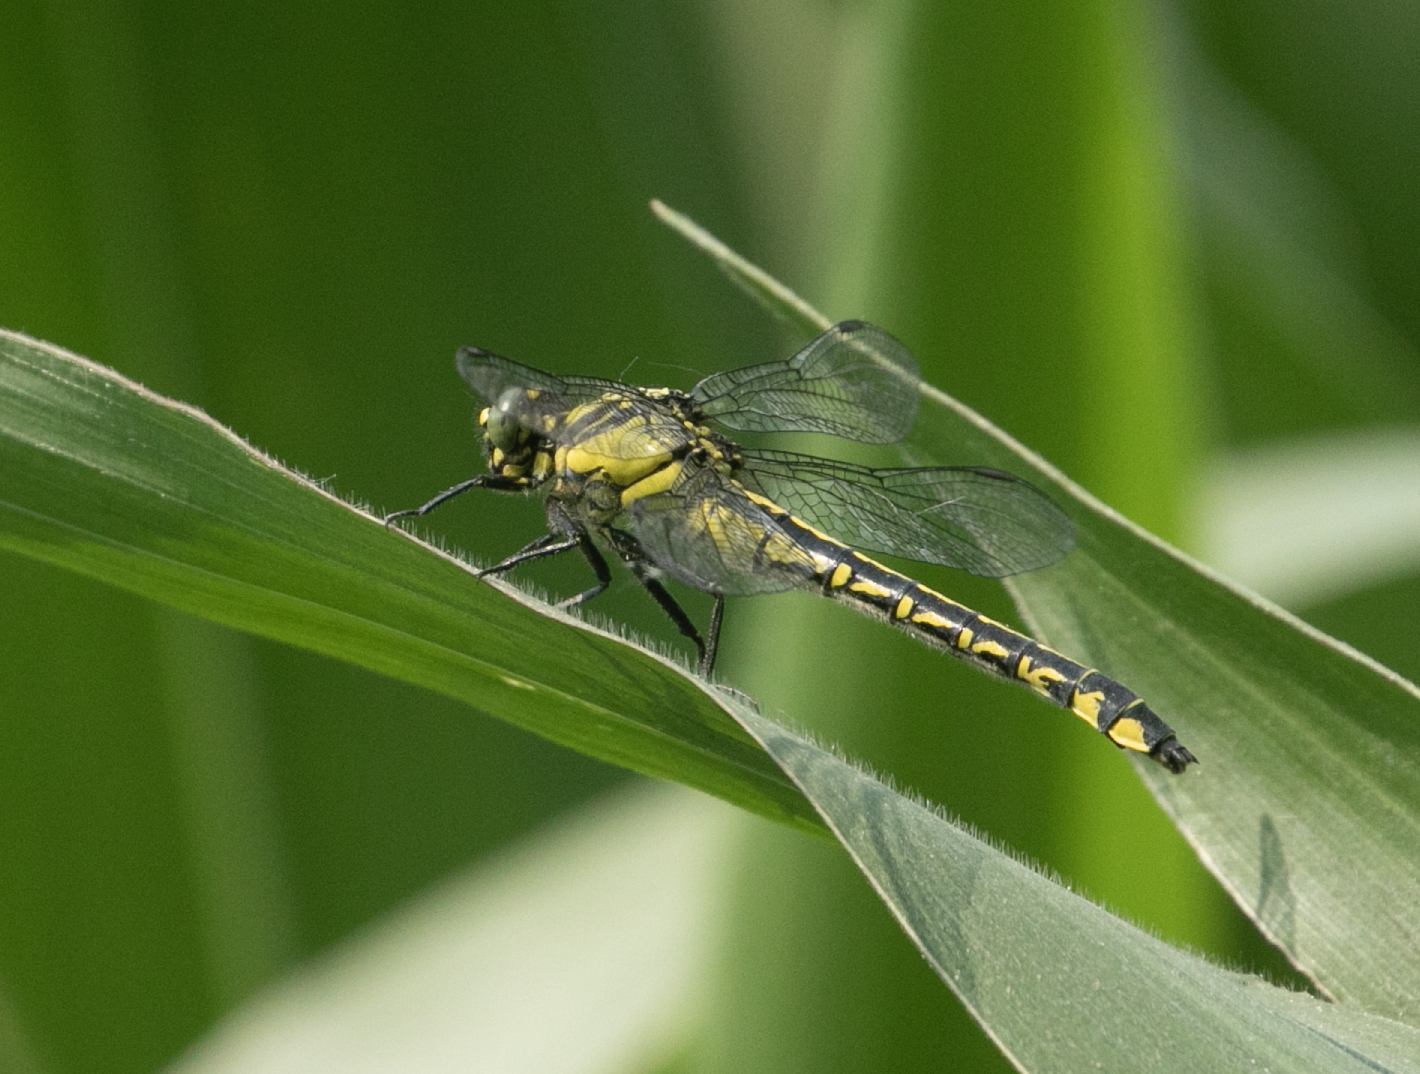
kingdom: Animalia
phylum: Arthropoda
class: Insecta
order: Odonata
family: Gomphidae
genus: Gomphus
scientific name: Gomphus vulgatissimus
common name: Club-tailed dragonfly
